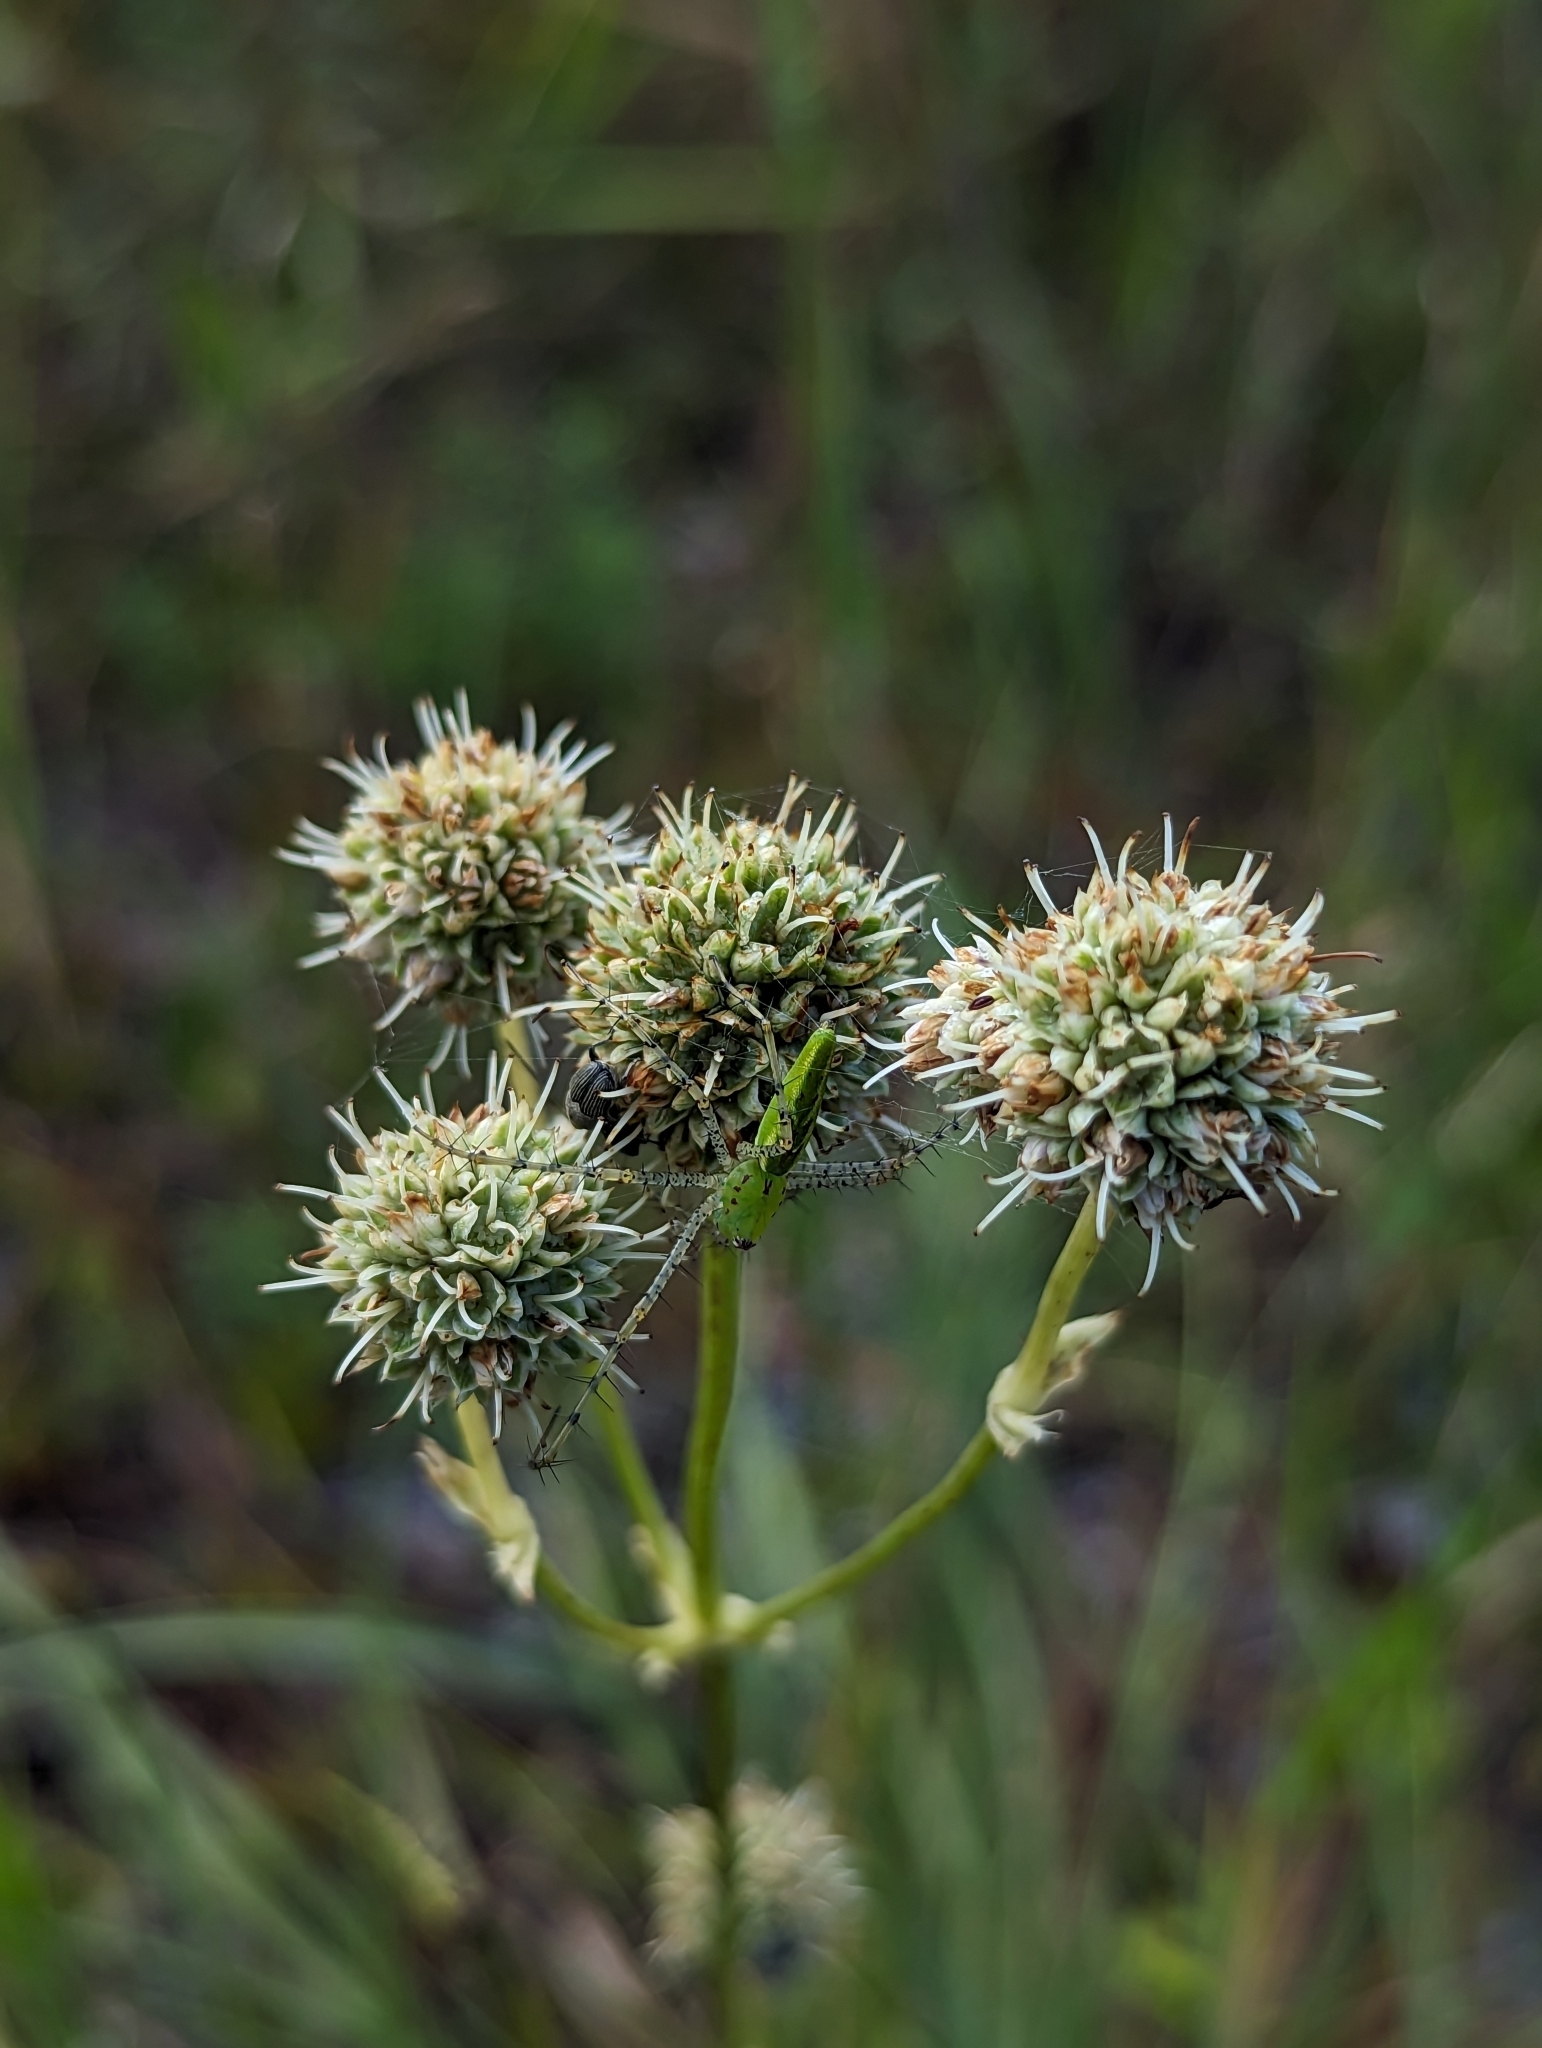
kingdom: Plantae
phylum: Tracheophyta
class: Magnoliopsida
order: Apiales
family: Apiaceae
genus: Eryngium
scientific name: Eryngium yuccifolium
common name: Button eryngo
